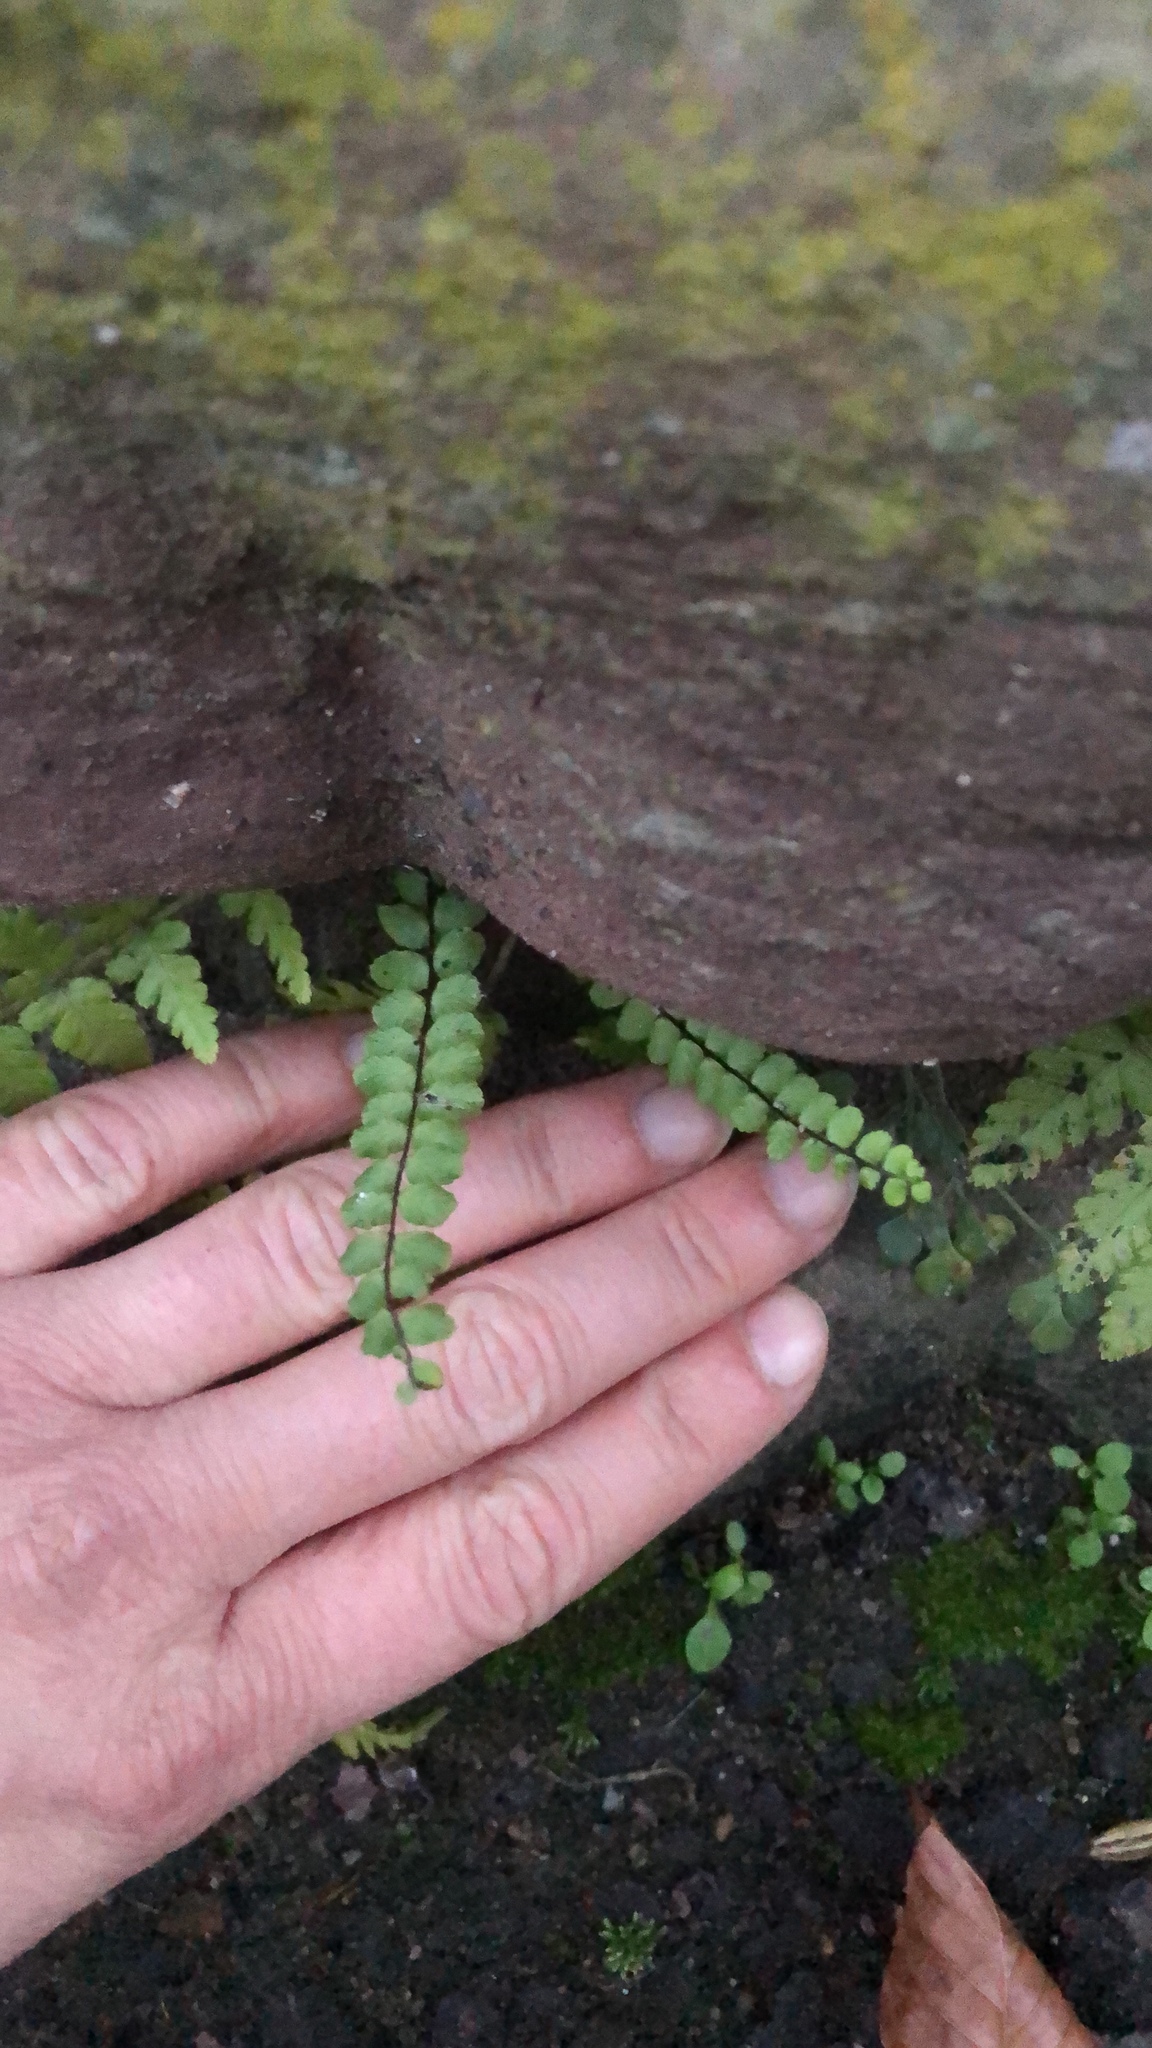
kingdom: Plantae
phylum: Tracheophyta
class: Polypodiopsida
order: Polypodiales
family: Aspleniaceae
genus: Asplenium
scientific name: Asplenium trichomanes
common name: Maidenhair spleenwort
